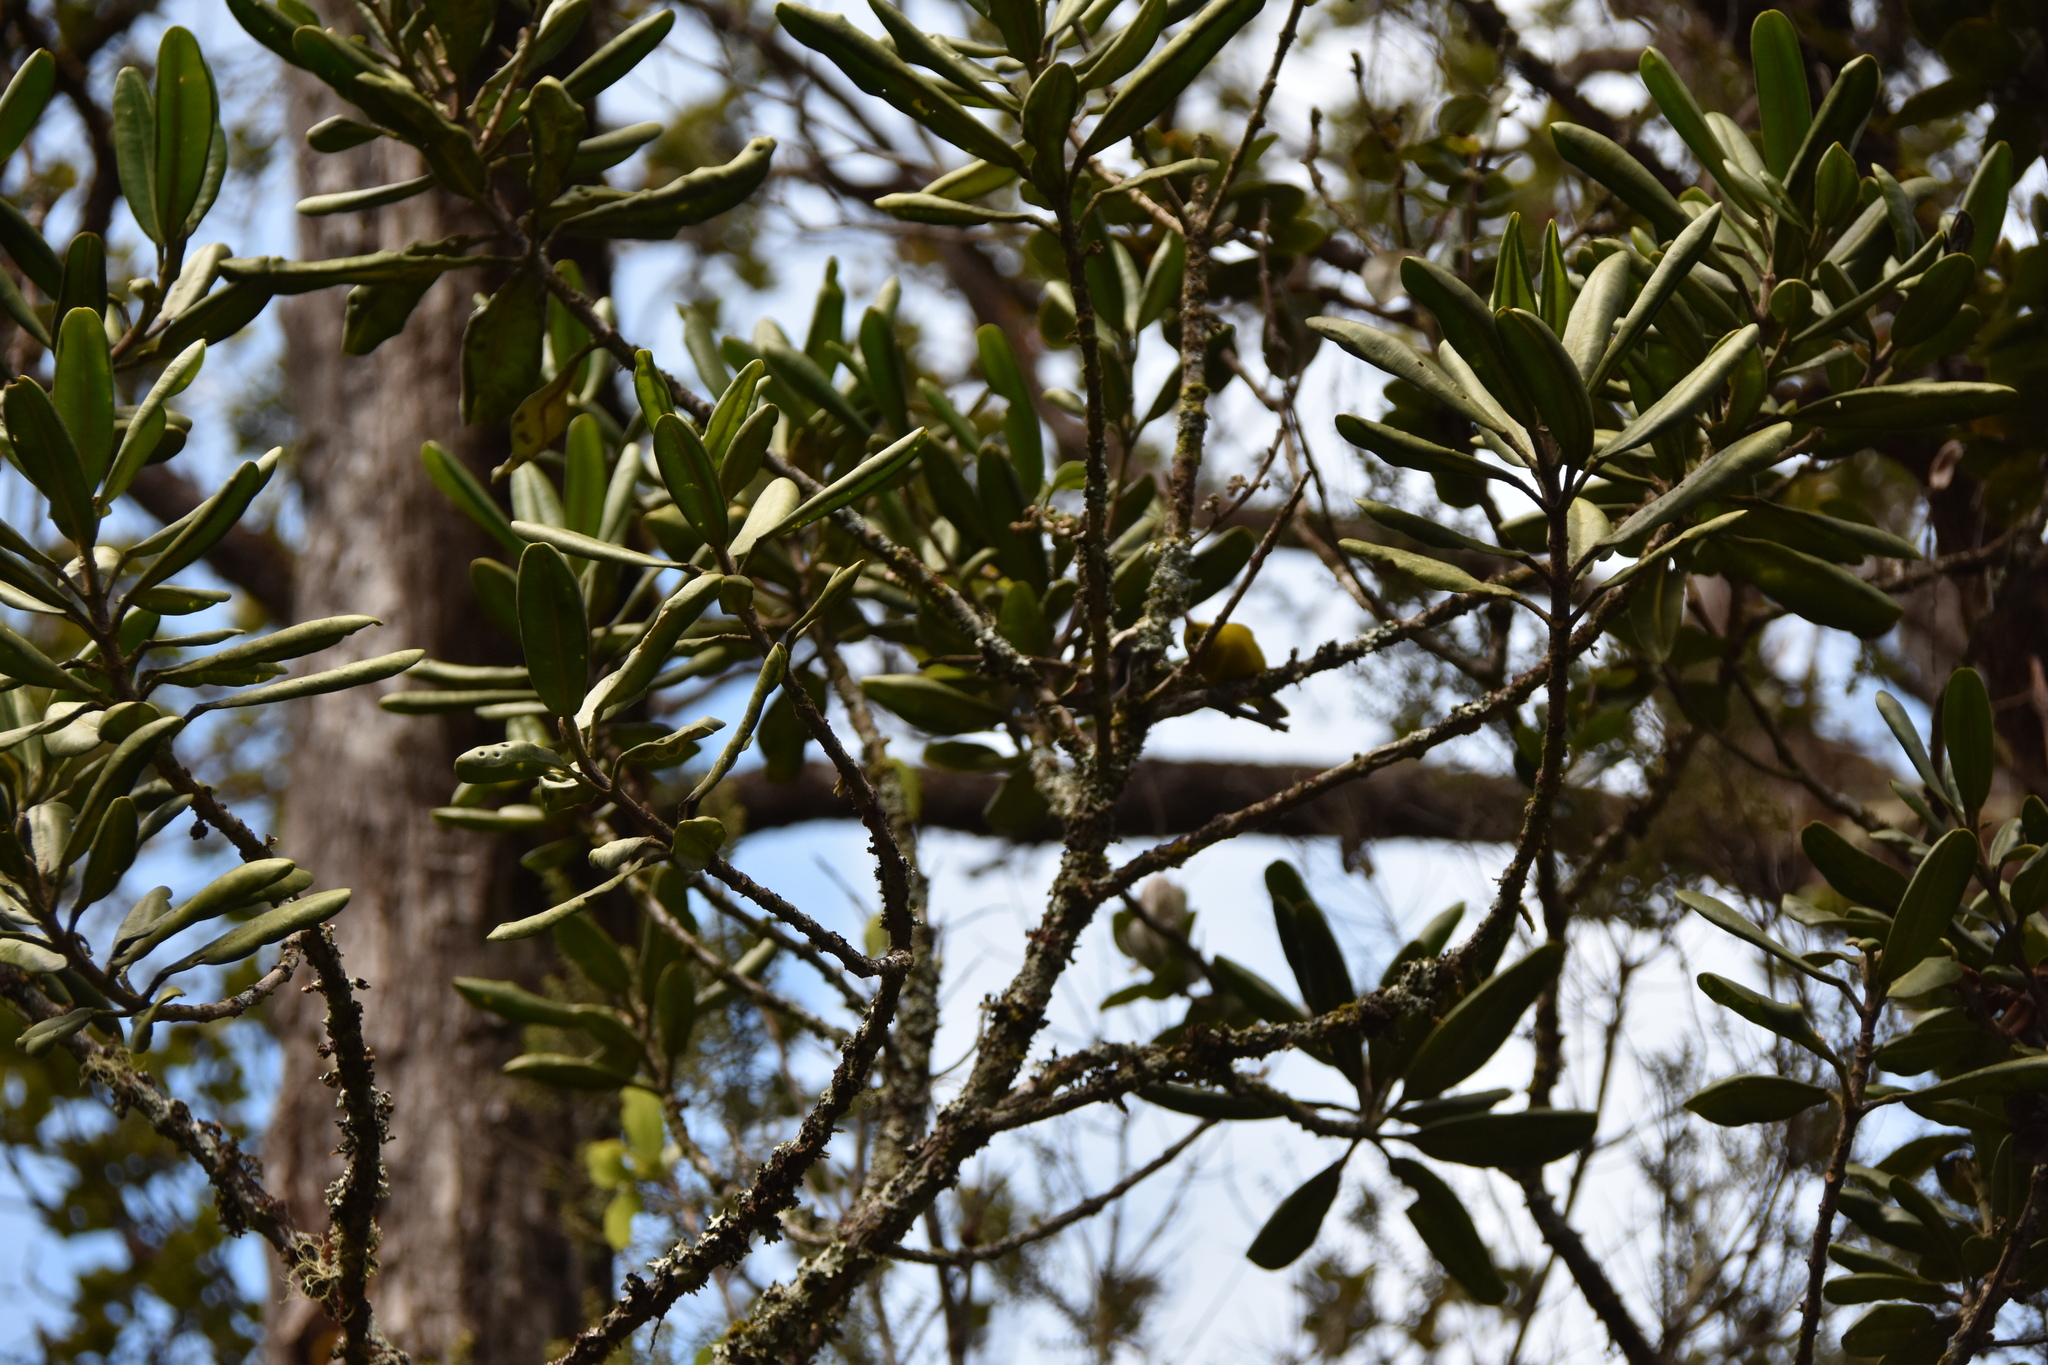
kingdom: Plantae
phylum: Tracheophyta
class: Magnoliopsida
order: Sapindales
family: Rutaceae
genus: Melicope
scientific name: Melicope clusiifolia
